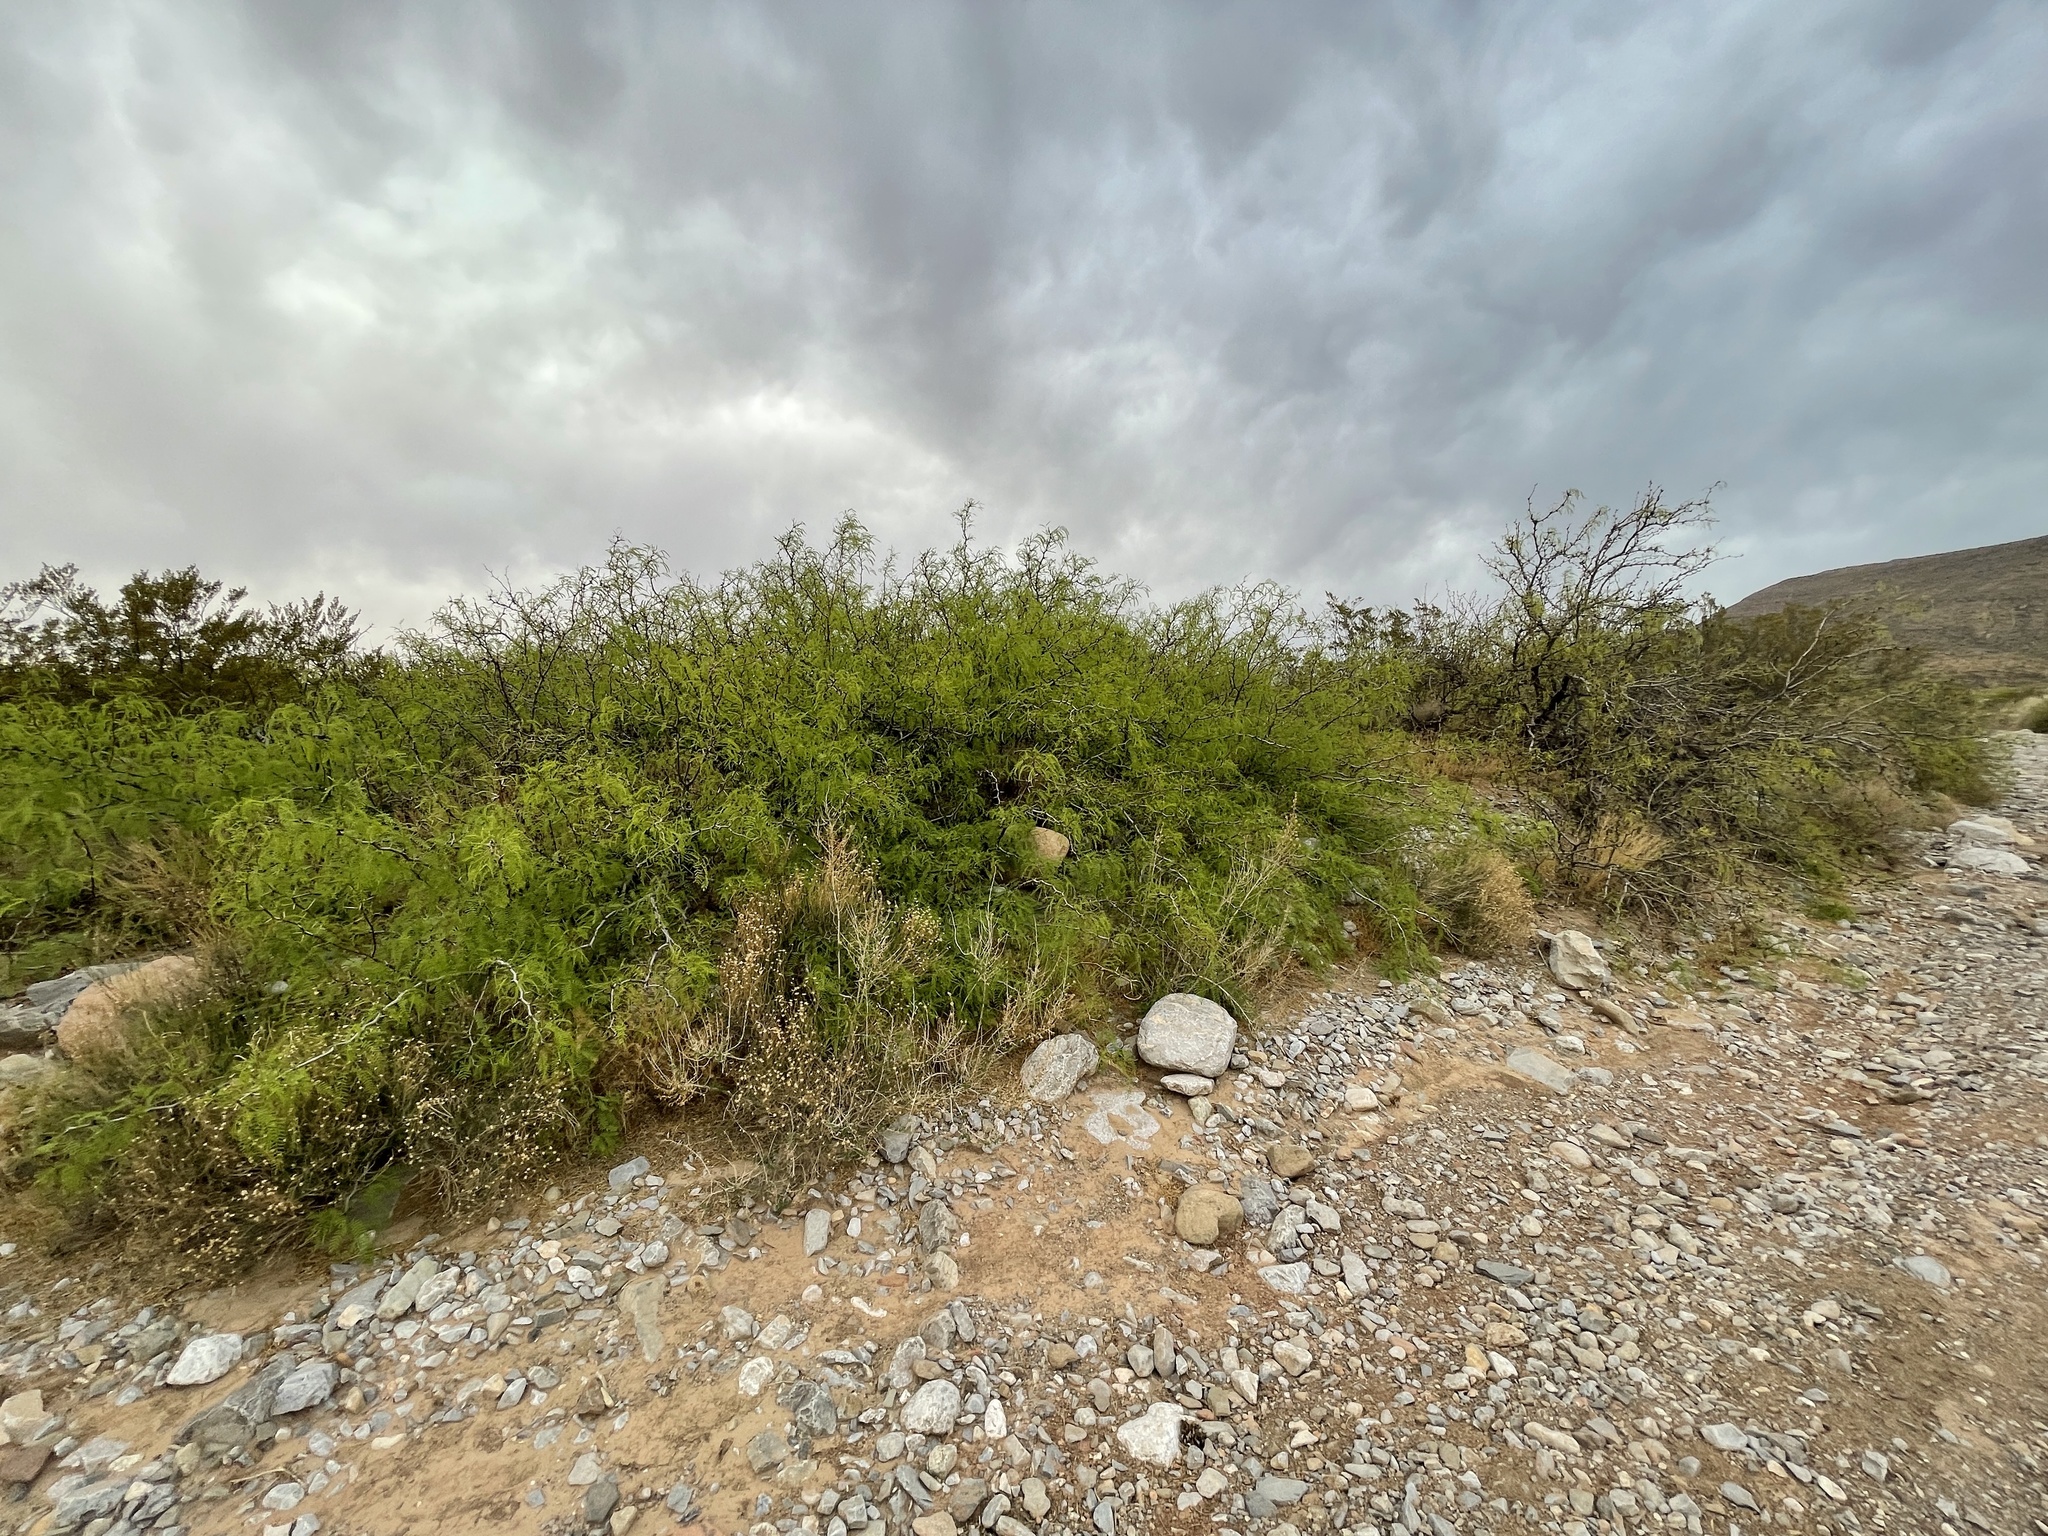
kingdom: Plantae
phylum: Tracheophyta
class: Magnoliopsida
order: Fabales
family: Fabaceae
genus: Prosopis
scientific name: Prosopis glandulosa
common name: Honey mesquite
